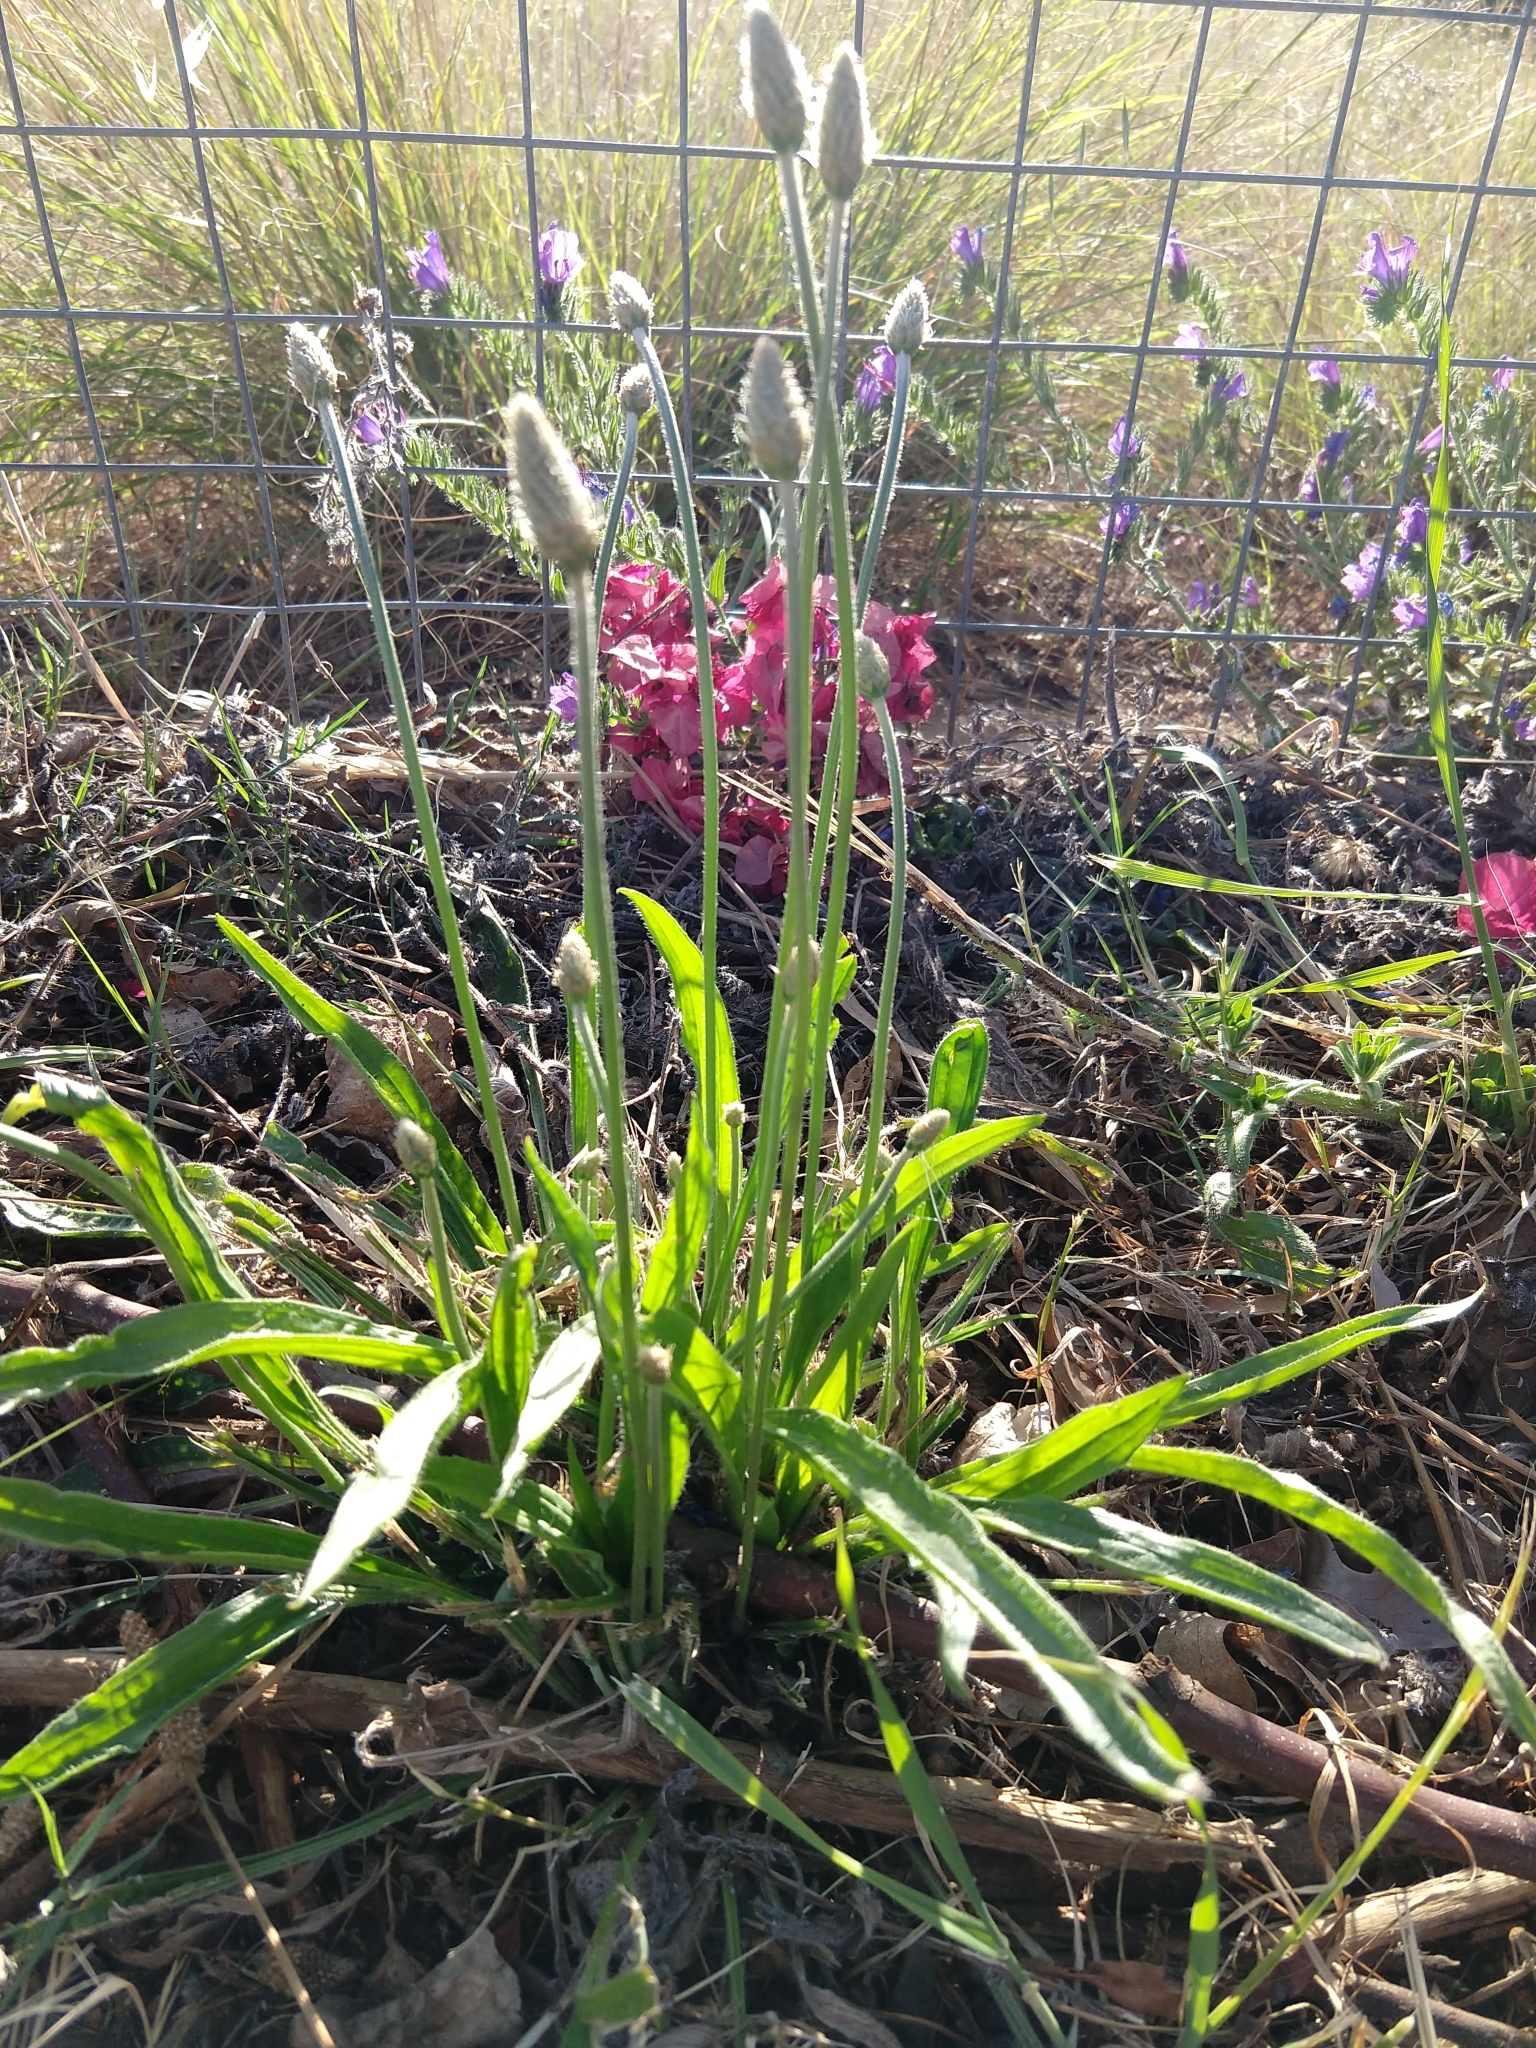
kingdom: Plantae
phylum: Tracheophyta
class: Magnoliopsida
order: Lamiales
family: Plantaginaceae
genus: Plantago
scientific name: Plantago lanceolata
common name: Ribwort plantain
